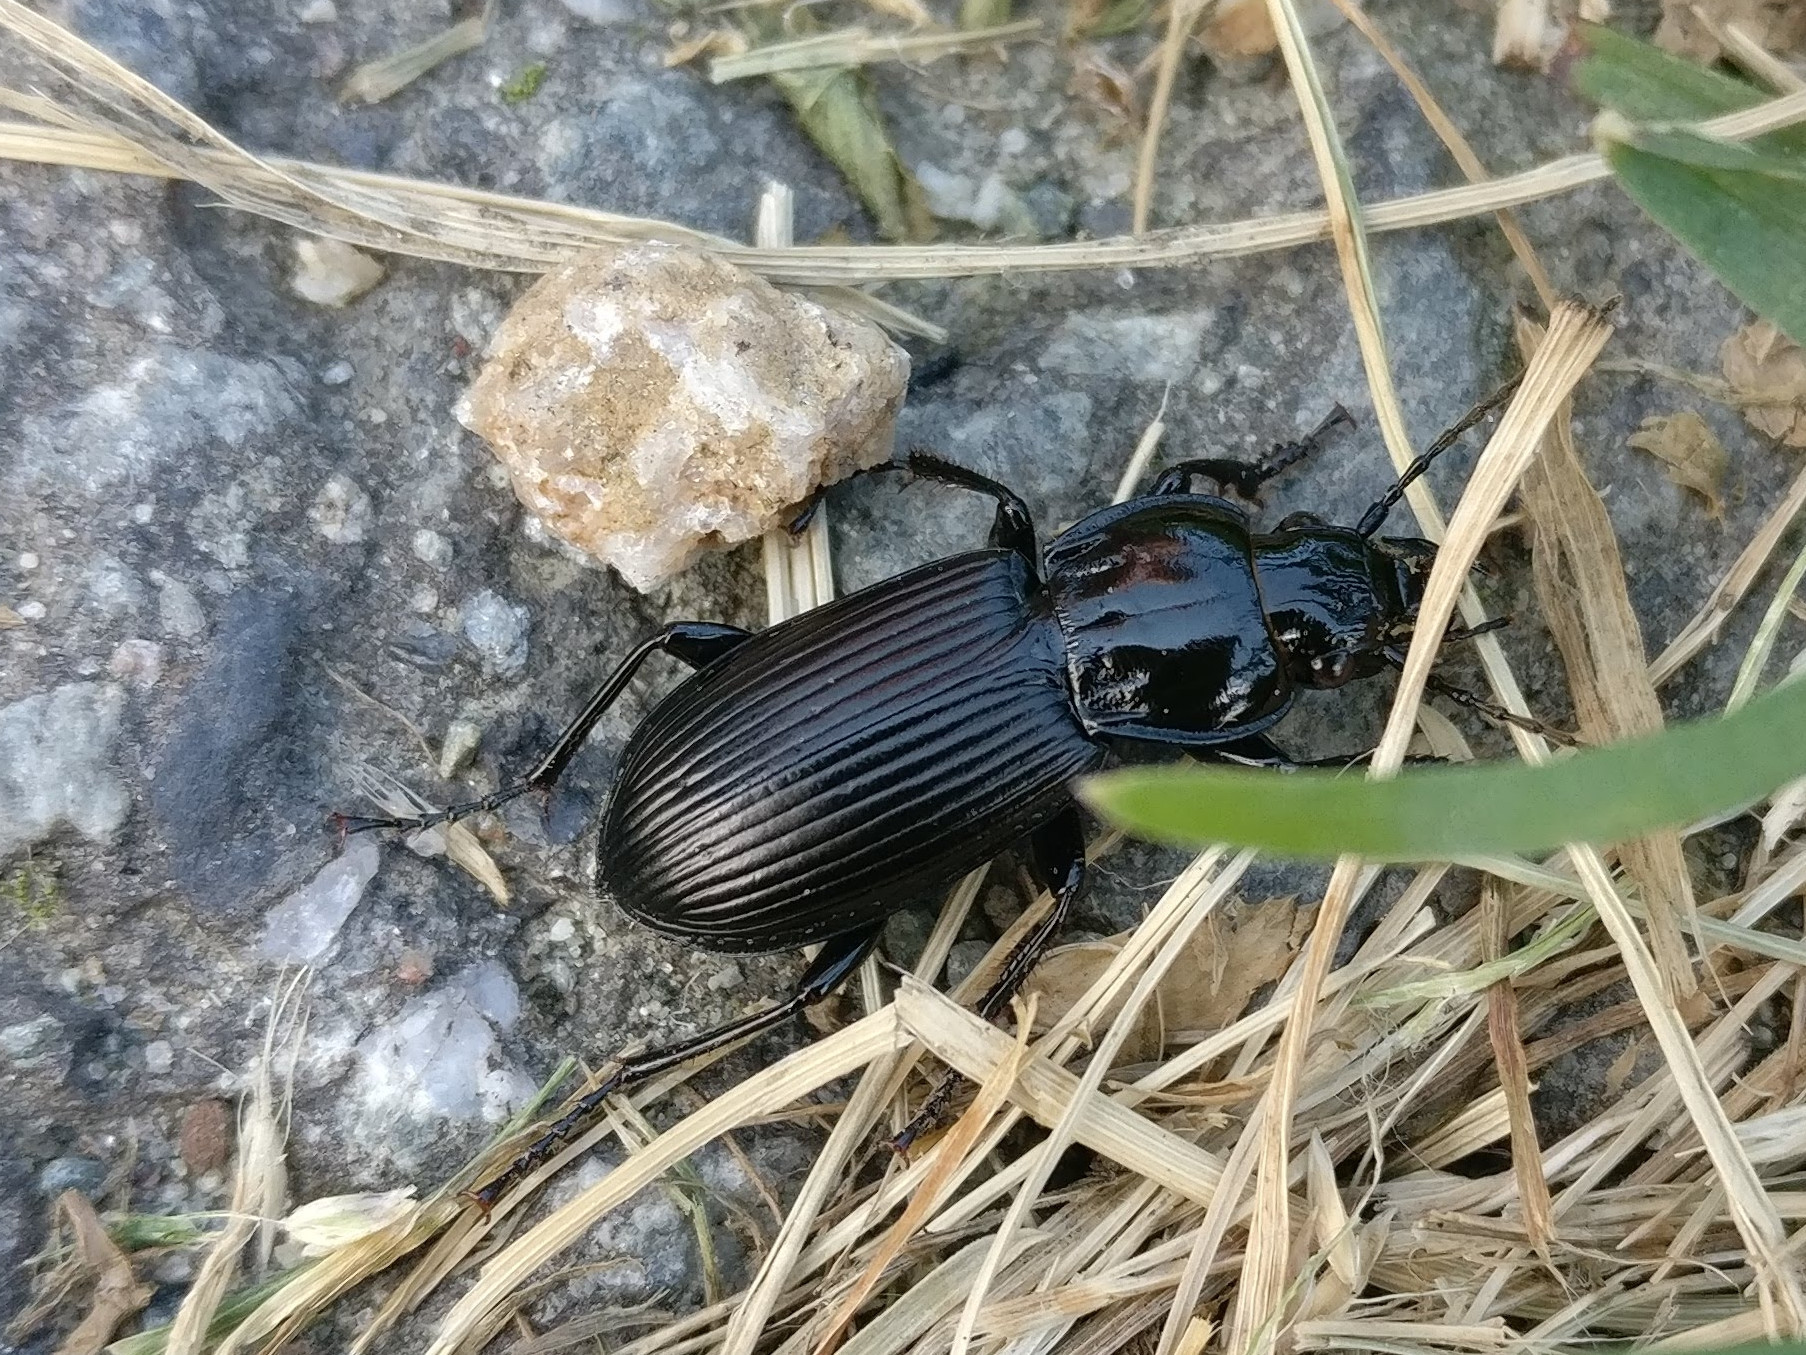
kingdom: Animalia
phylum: Arthropoda
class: Insecta
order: Coleoptera
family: Carabidae
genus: Pterostichus
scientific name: Pterostichus melanarius
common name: European dark harp ground beetle
